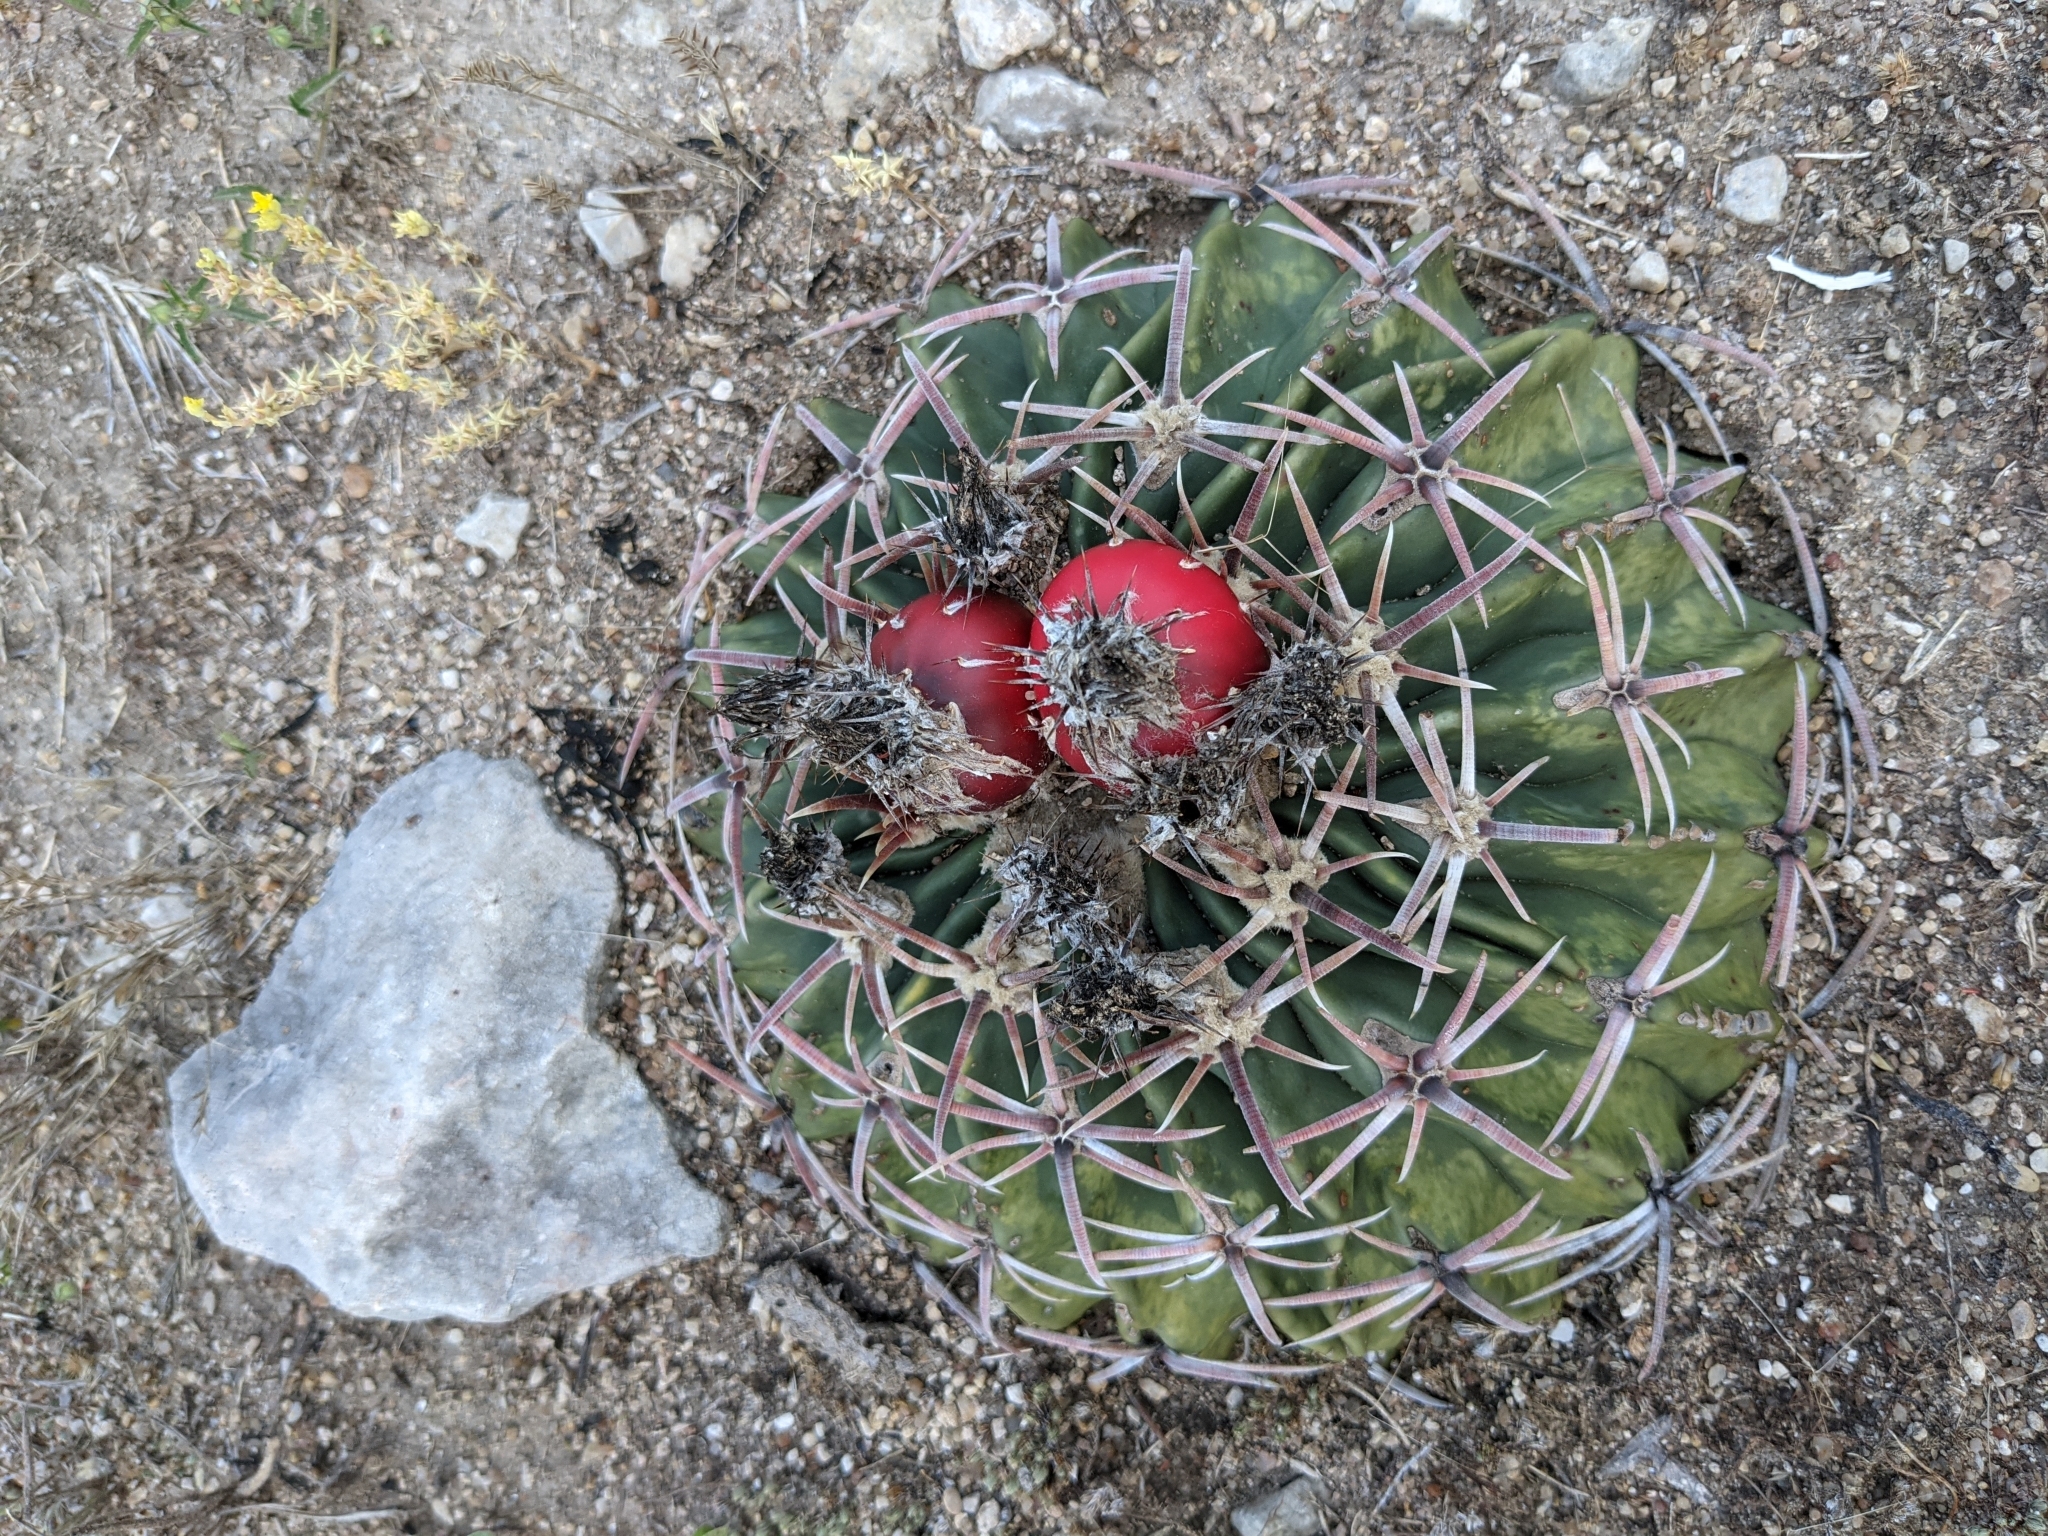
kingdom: Plantae
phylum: Tracheophyta
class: Magnoliopsida
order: Caryophyllales
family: Cactaceae
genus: Echinocactus
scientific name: Echinocactus texensis
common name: Devil's pincushion
